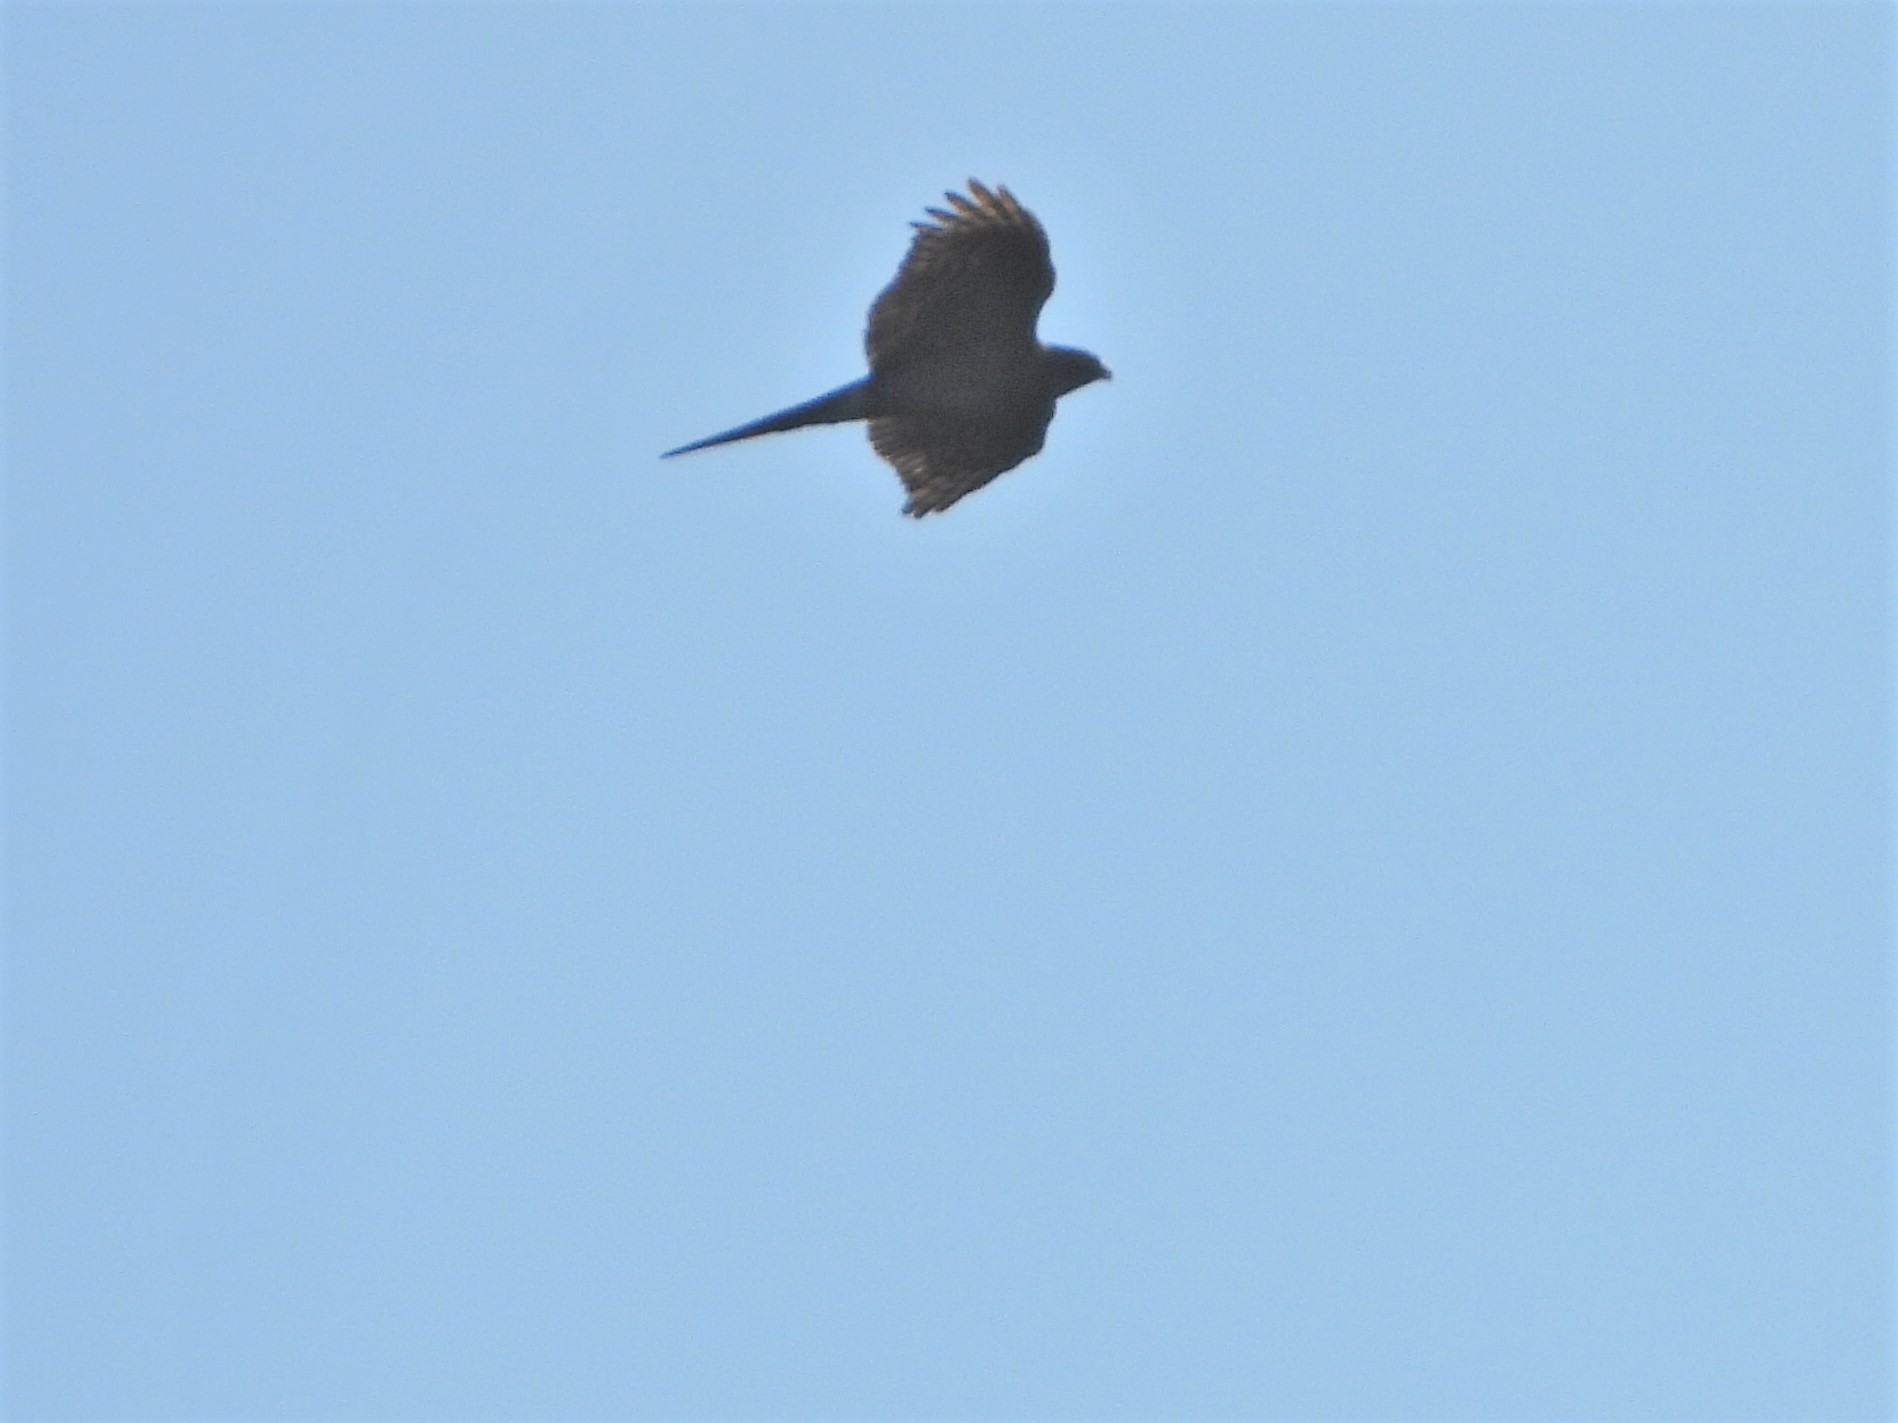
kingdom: Animalia
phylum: Chordata
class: Aves
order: Accipitriformes
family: Accipitridae
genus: Accipiter
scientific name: Accipiter nisus
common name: Eurasian sparrowhawk
